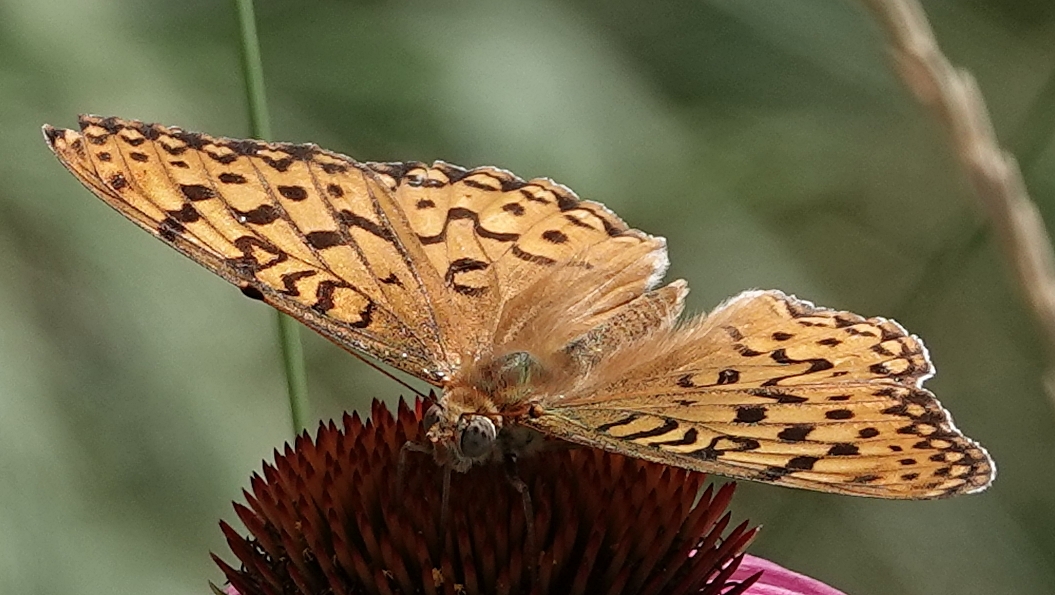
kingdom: Animalia
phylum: Arthropoda
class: Insecta
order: Lepidoptera
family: Nymphalidae
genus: Argynnis
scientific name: Argynnis coronis
